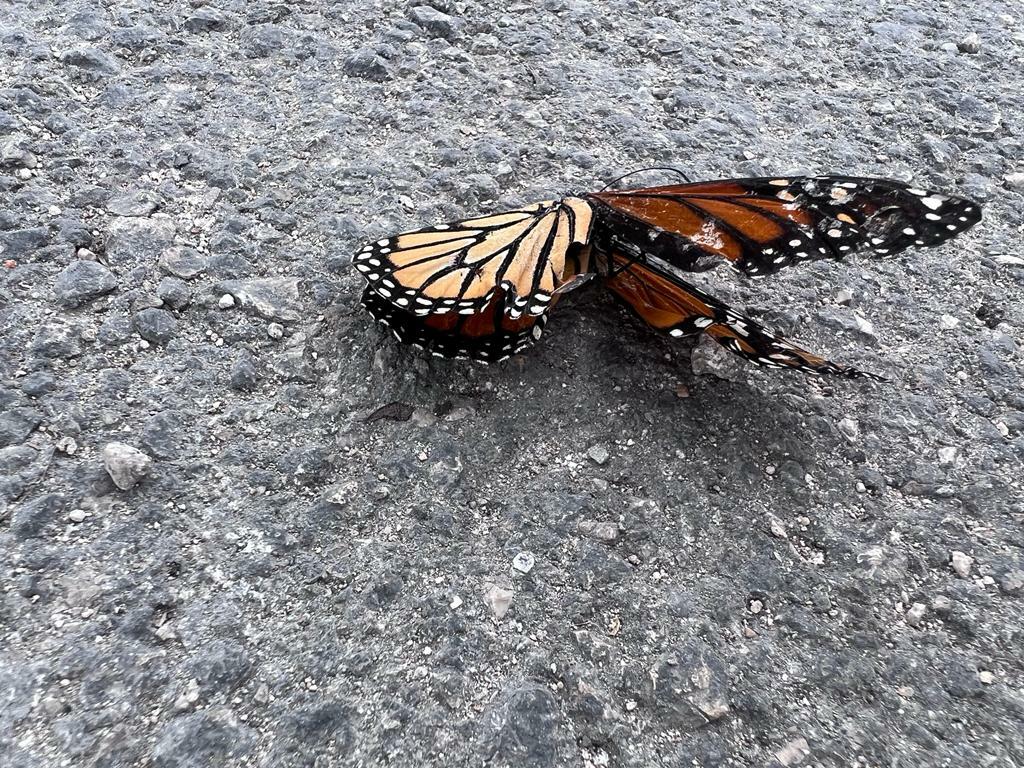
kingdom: Animalia
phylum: Arthropoda
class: Insecta
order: Lepidoptera
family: Nymphalidae
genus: Danaus
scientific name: Danaus plexippus
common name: Monarch
